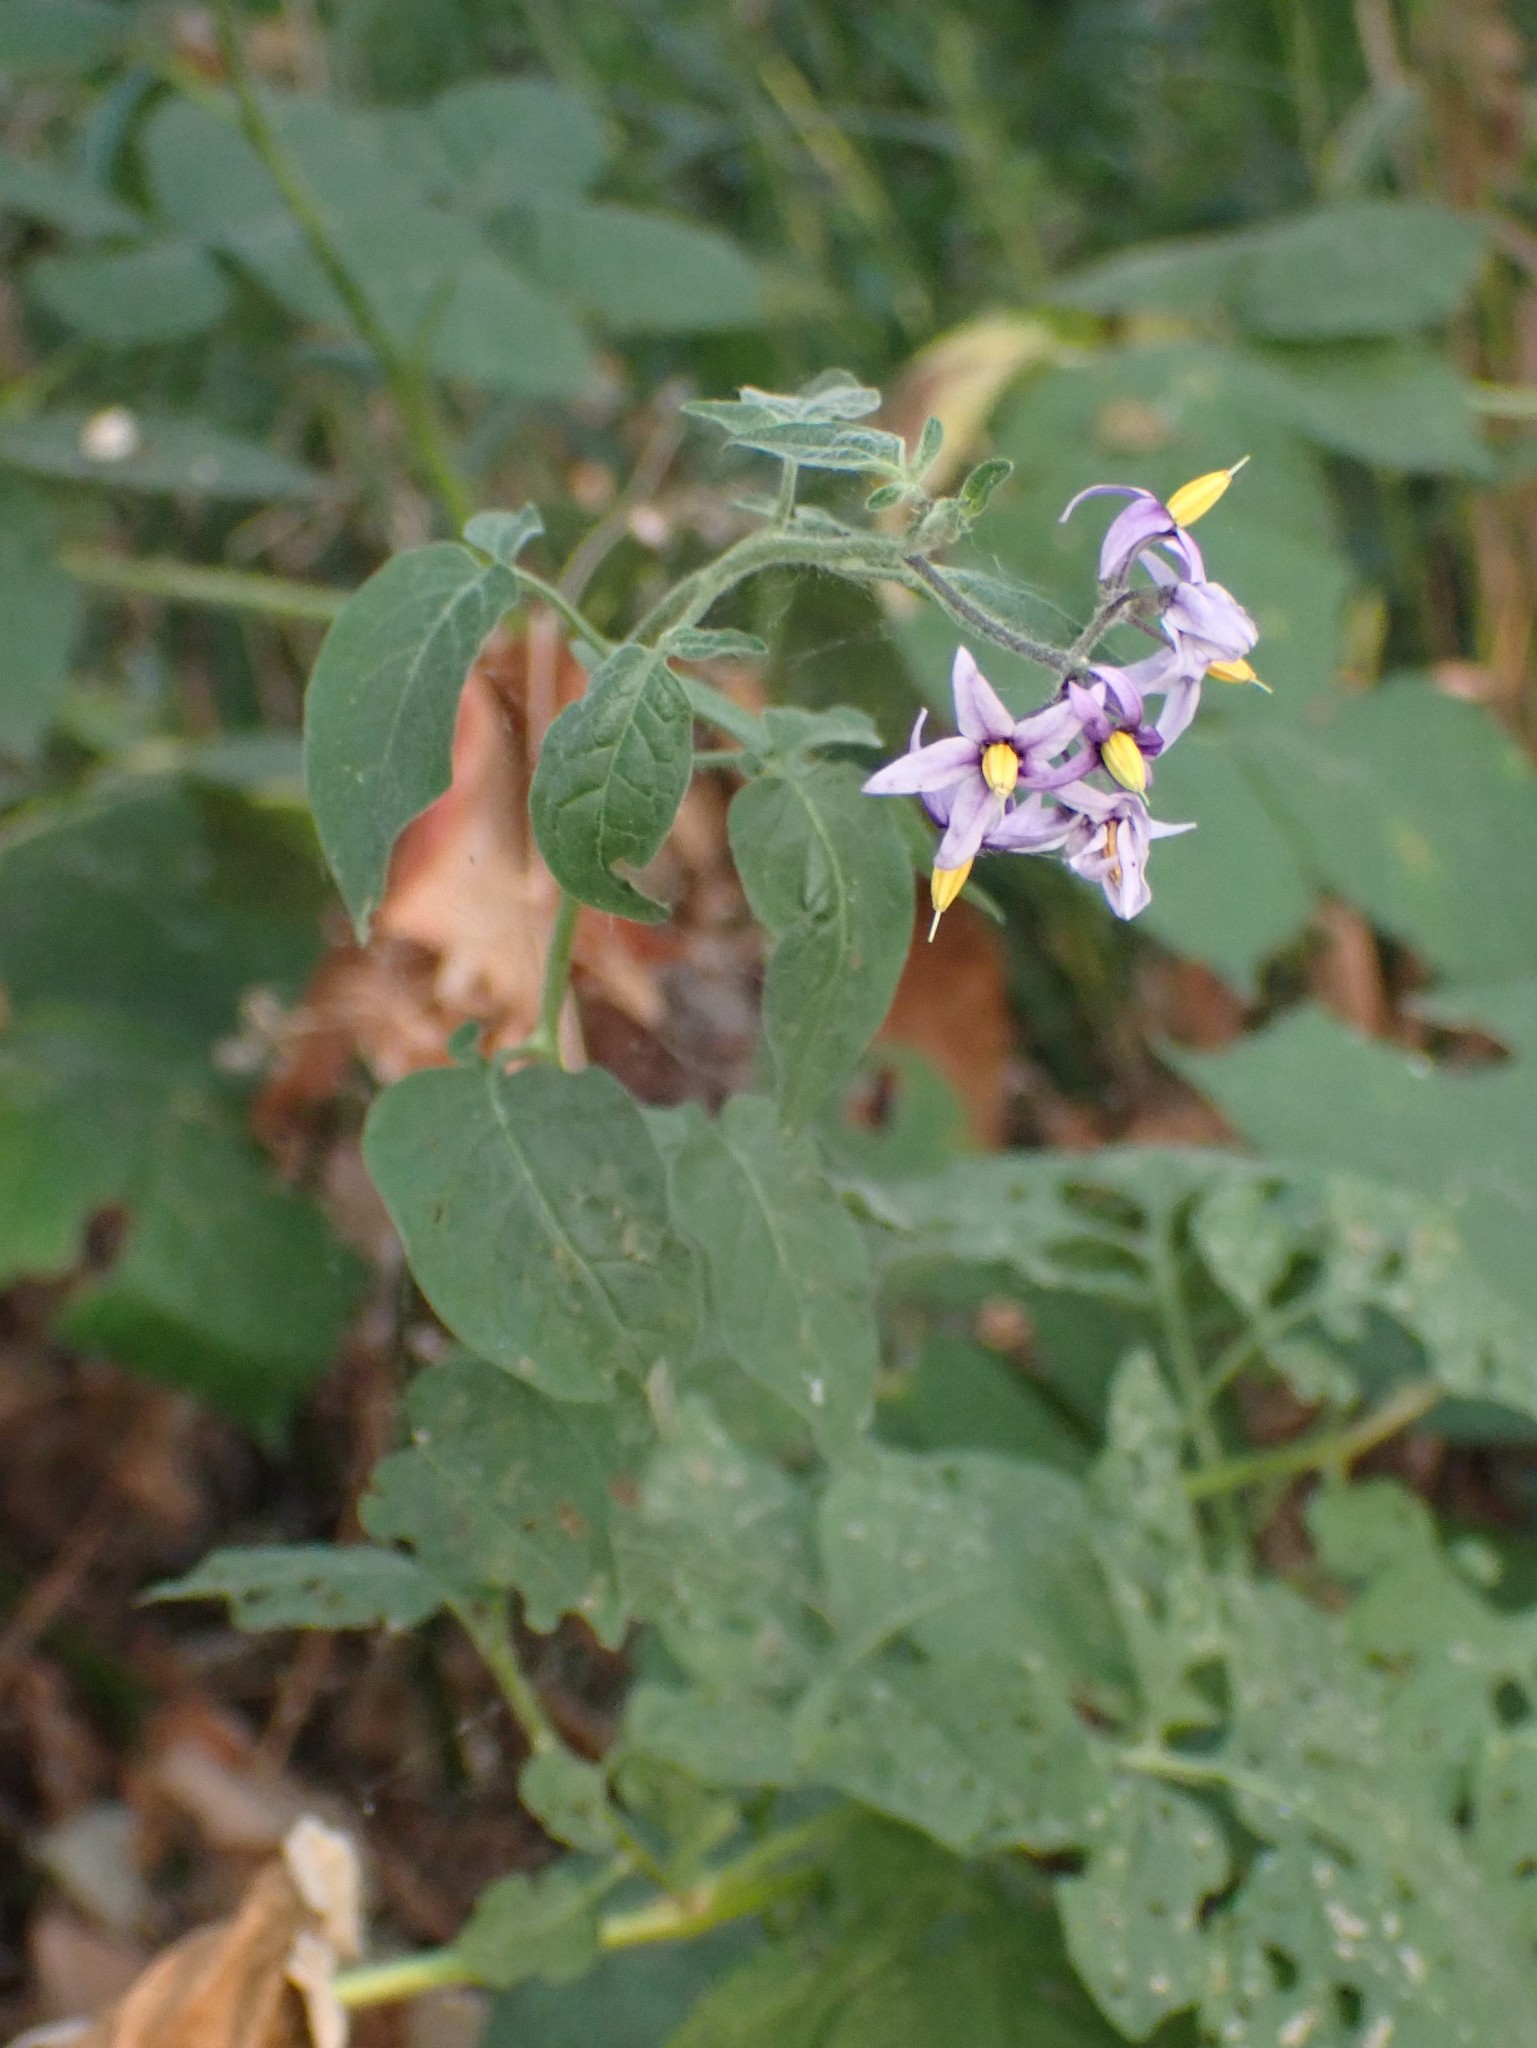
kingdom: Plantae
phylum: Tracheophyta
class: Magnoliopsida
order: Solanales
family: Solanaceae
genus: Solanum
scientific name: Solanum dulcamara
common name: Climbing nightshade
